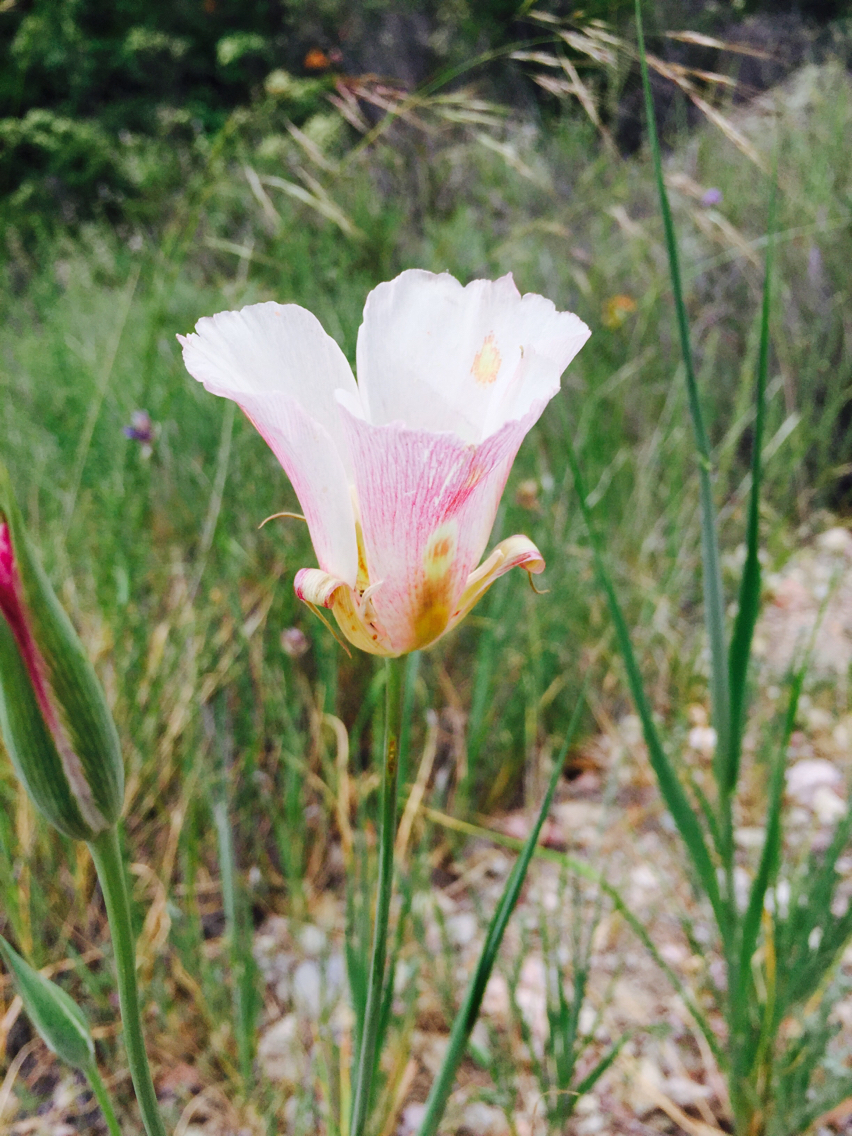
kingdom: Plantae
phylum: Tracheophyta
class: Liliopsida
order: Liliales
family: Liliaceae
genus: Calochortus
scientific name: Calochortus venustus
